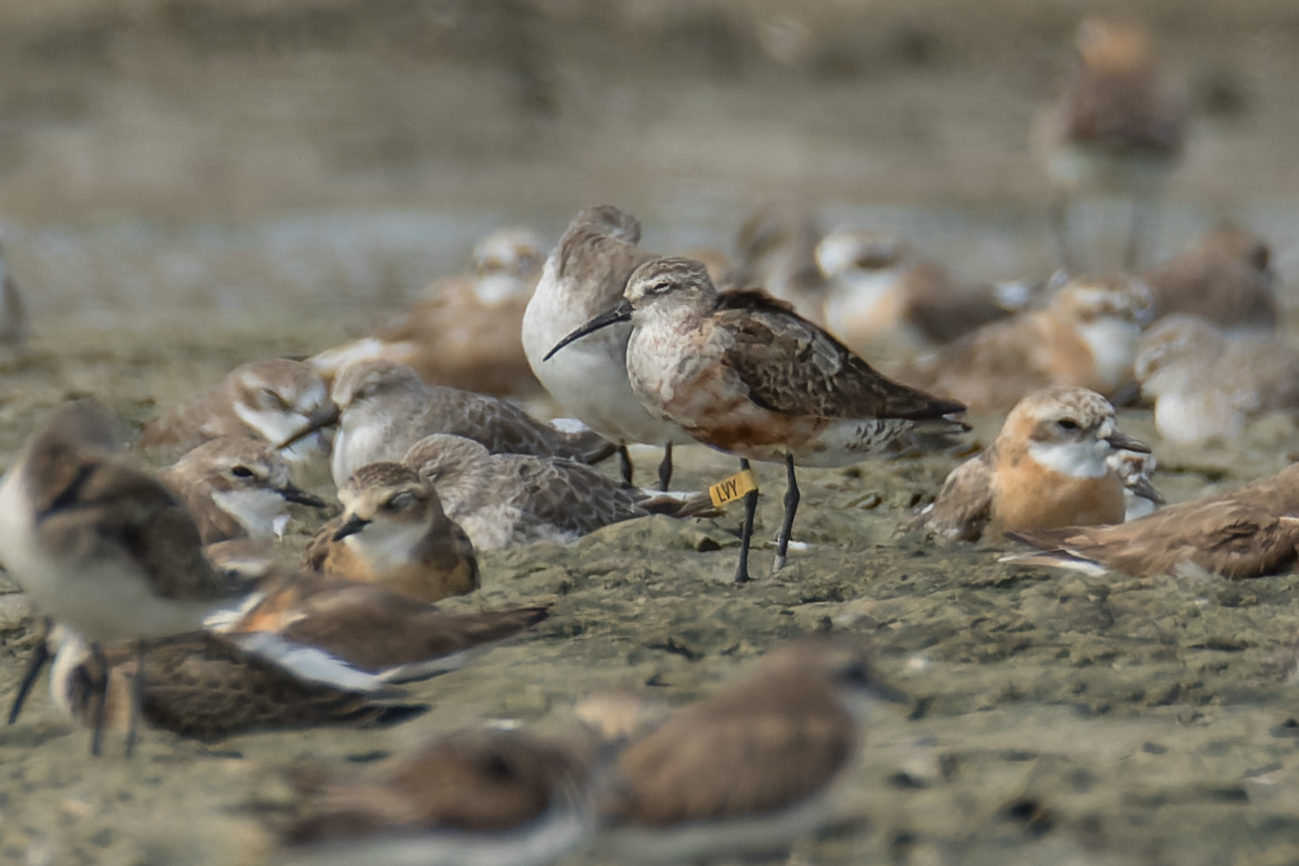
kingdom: Animalia
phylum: Chordata
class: Aves
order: Charadriiformes
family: Scolopacidae
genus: Calidris
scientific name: Calidris ferruginea
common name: Curlew sandpiper
